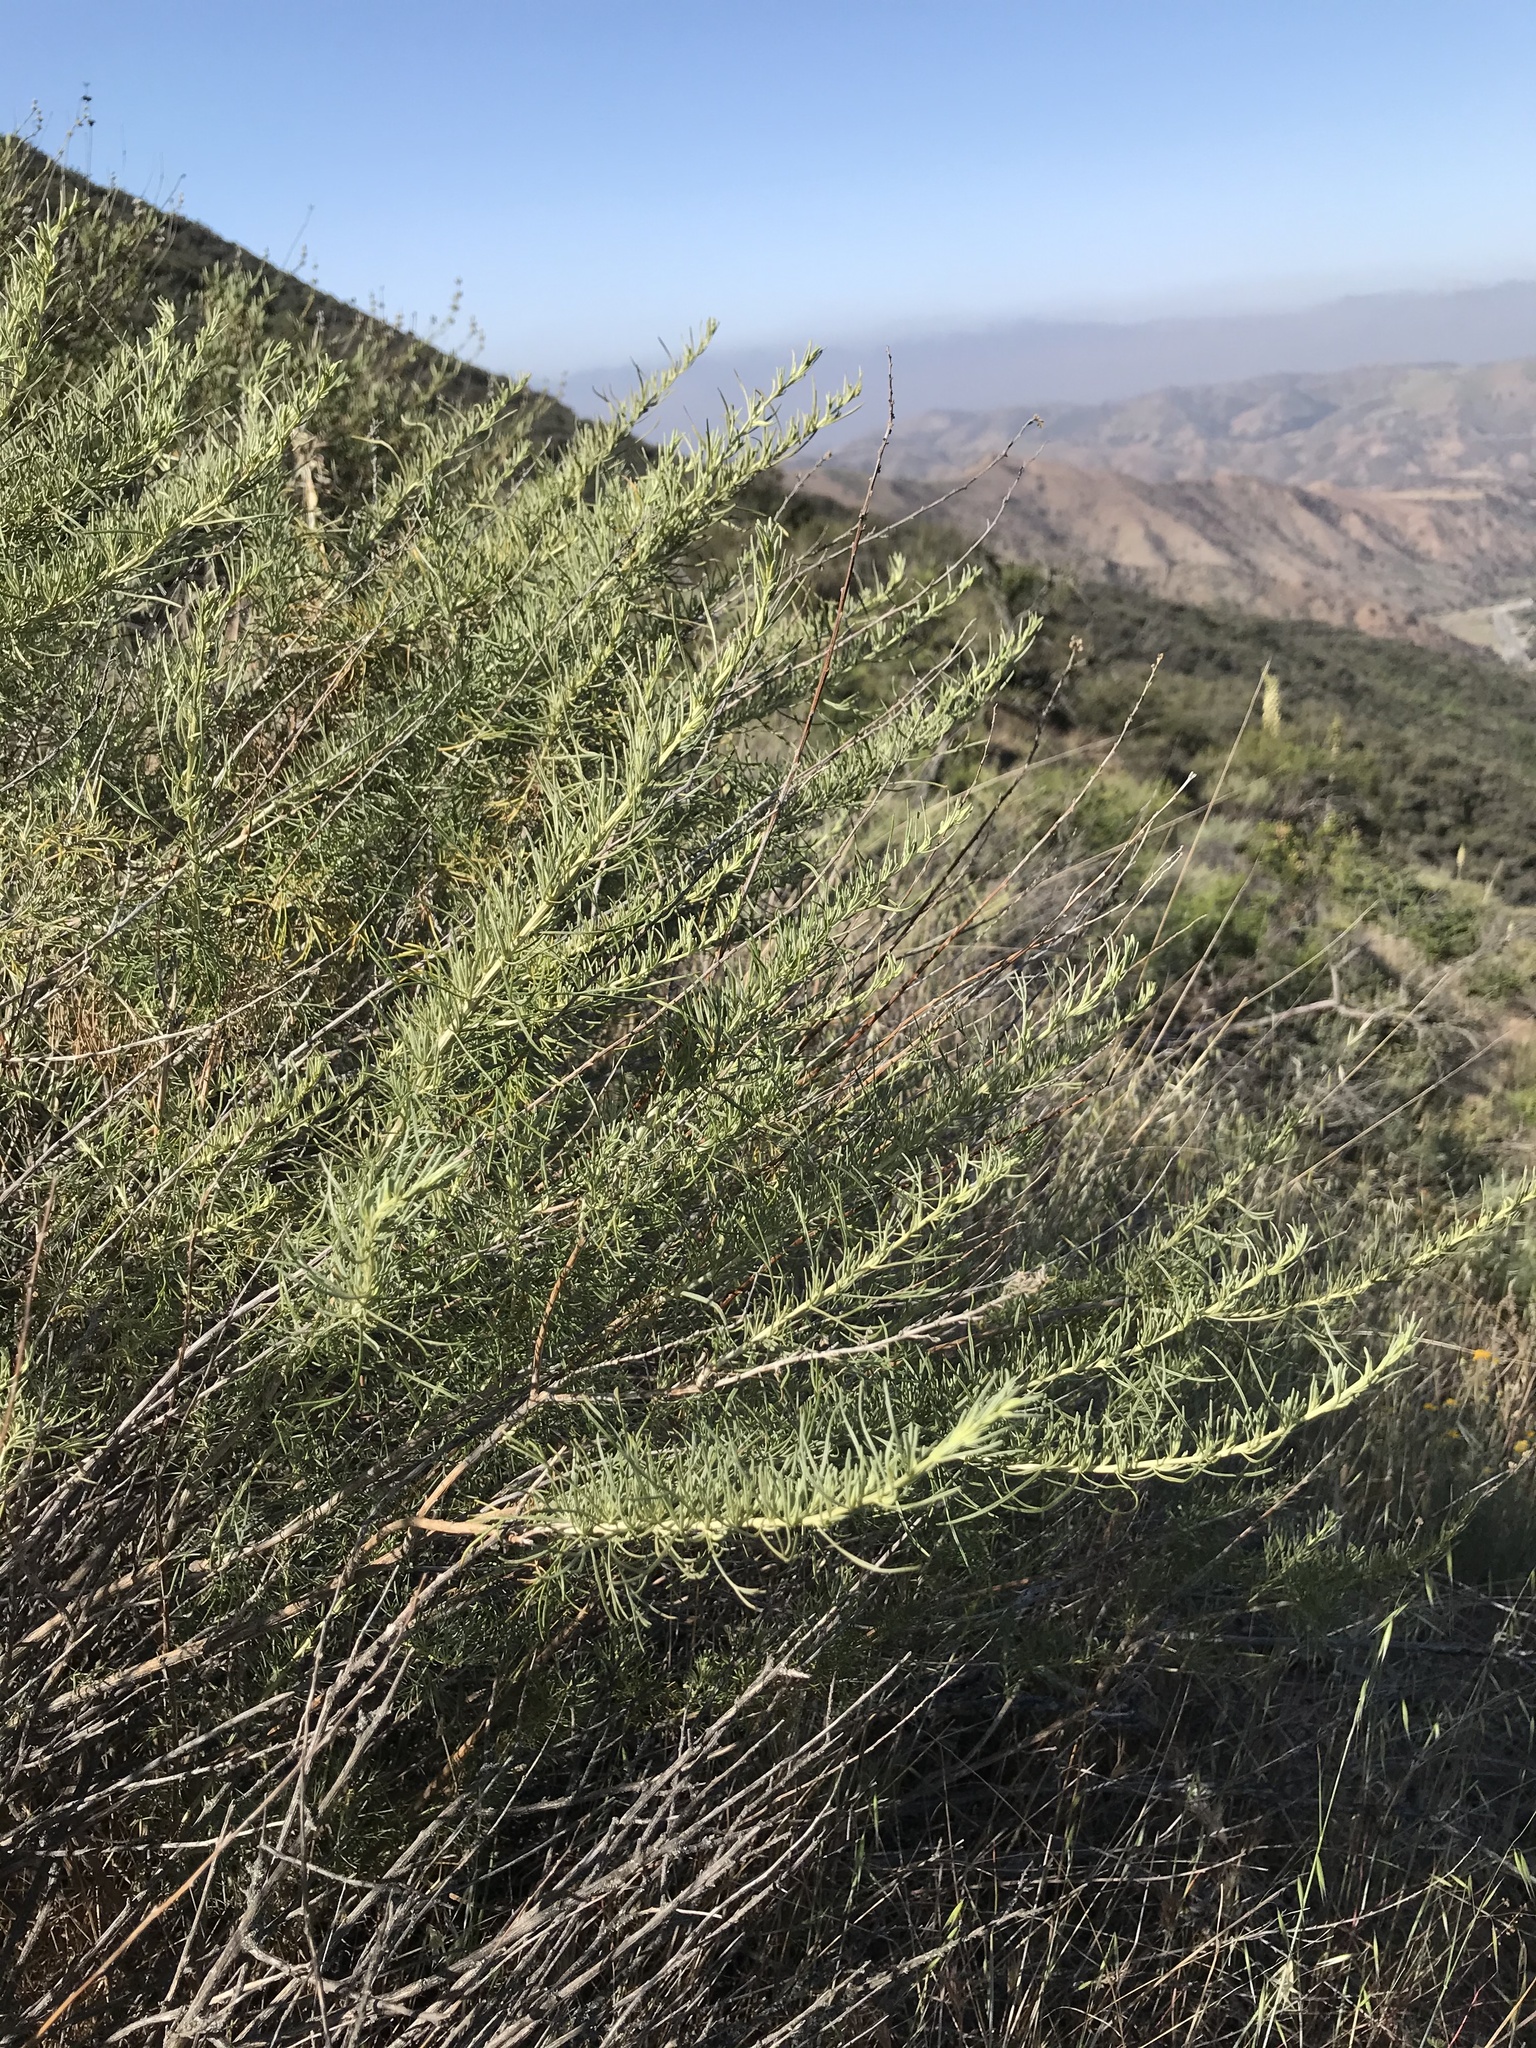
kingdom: Plantae
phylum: Tracheophyta
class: Magnoliopsida
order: Asterales
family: Asteraceae
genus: Artemisia
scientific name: Artemisia californica
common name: California sagebrush
